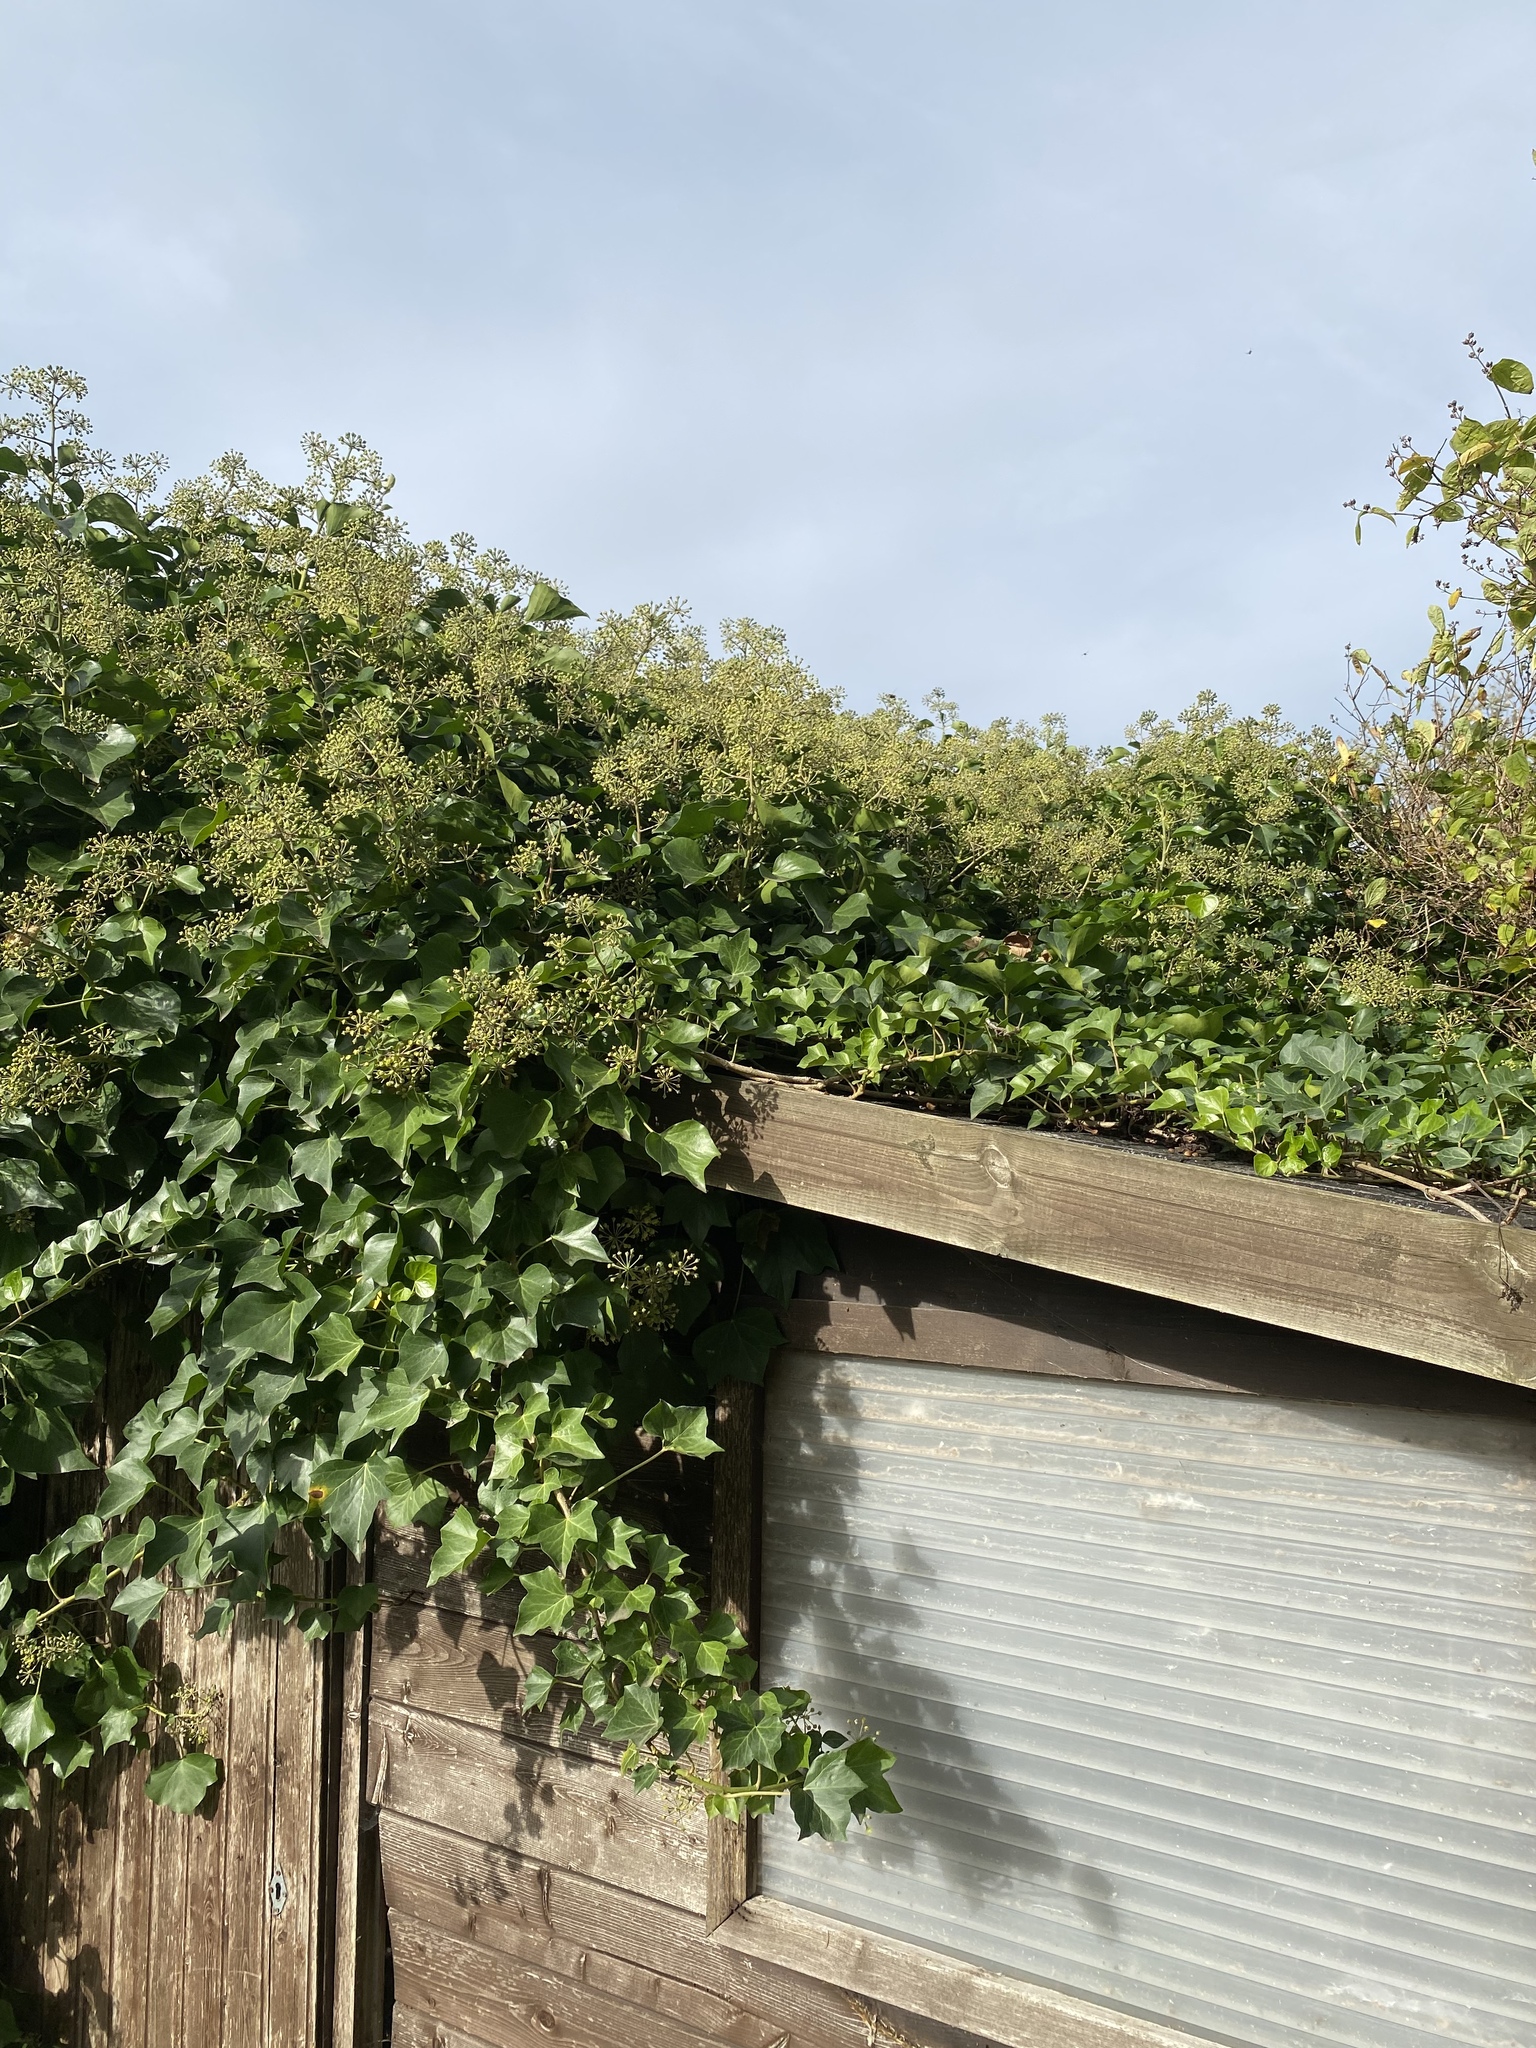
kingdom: Plantae
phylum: Tracheophyta
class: Magnoliopsida
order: Apiales
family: Araliaceae
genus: Hedera
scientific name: Hedera helix
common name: Ivy
